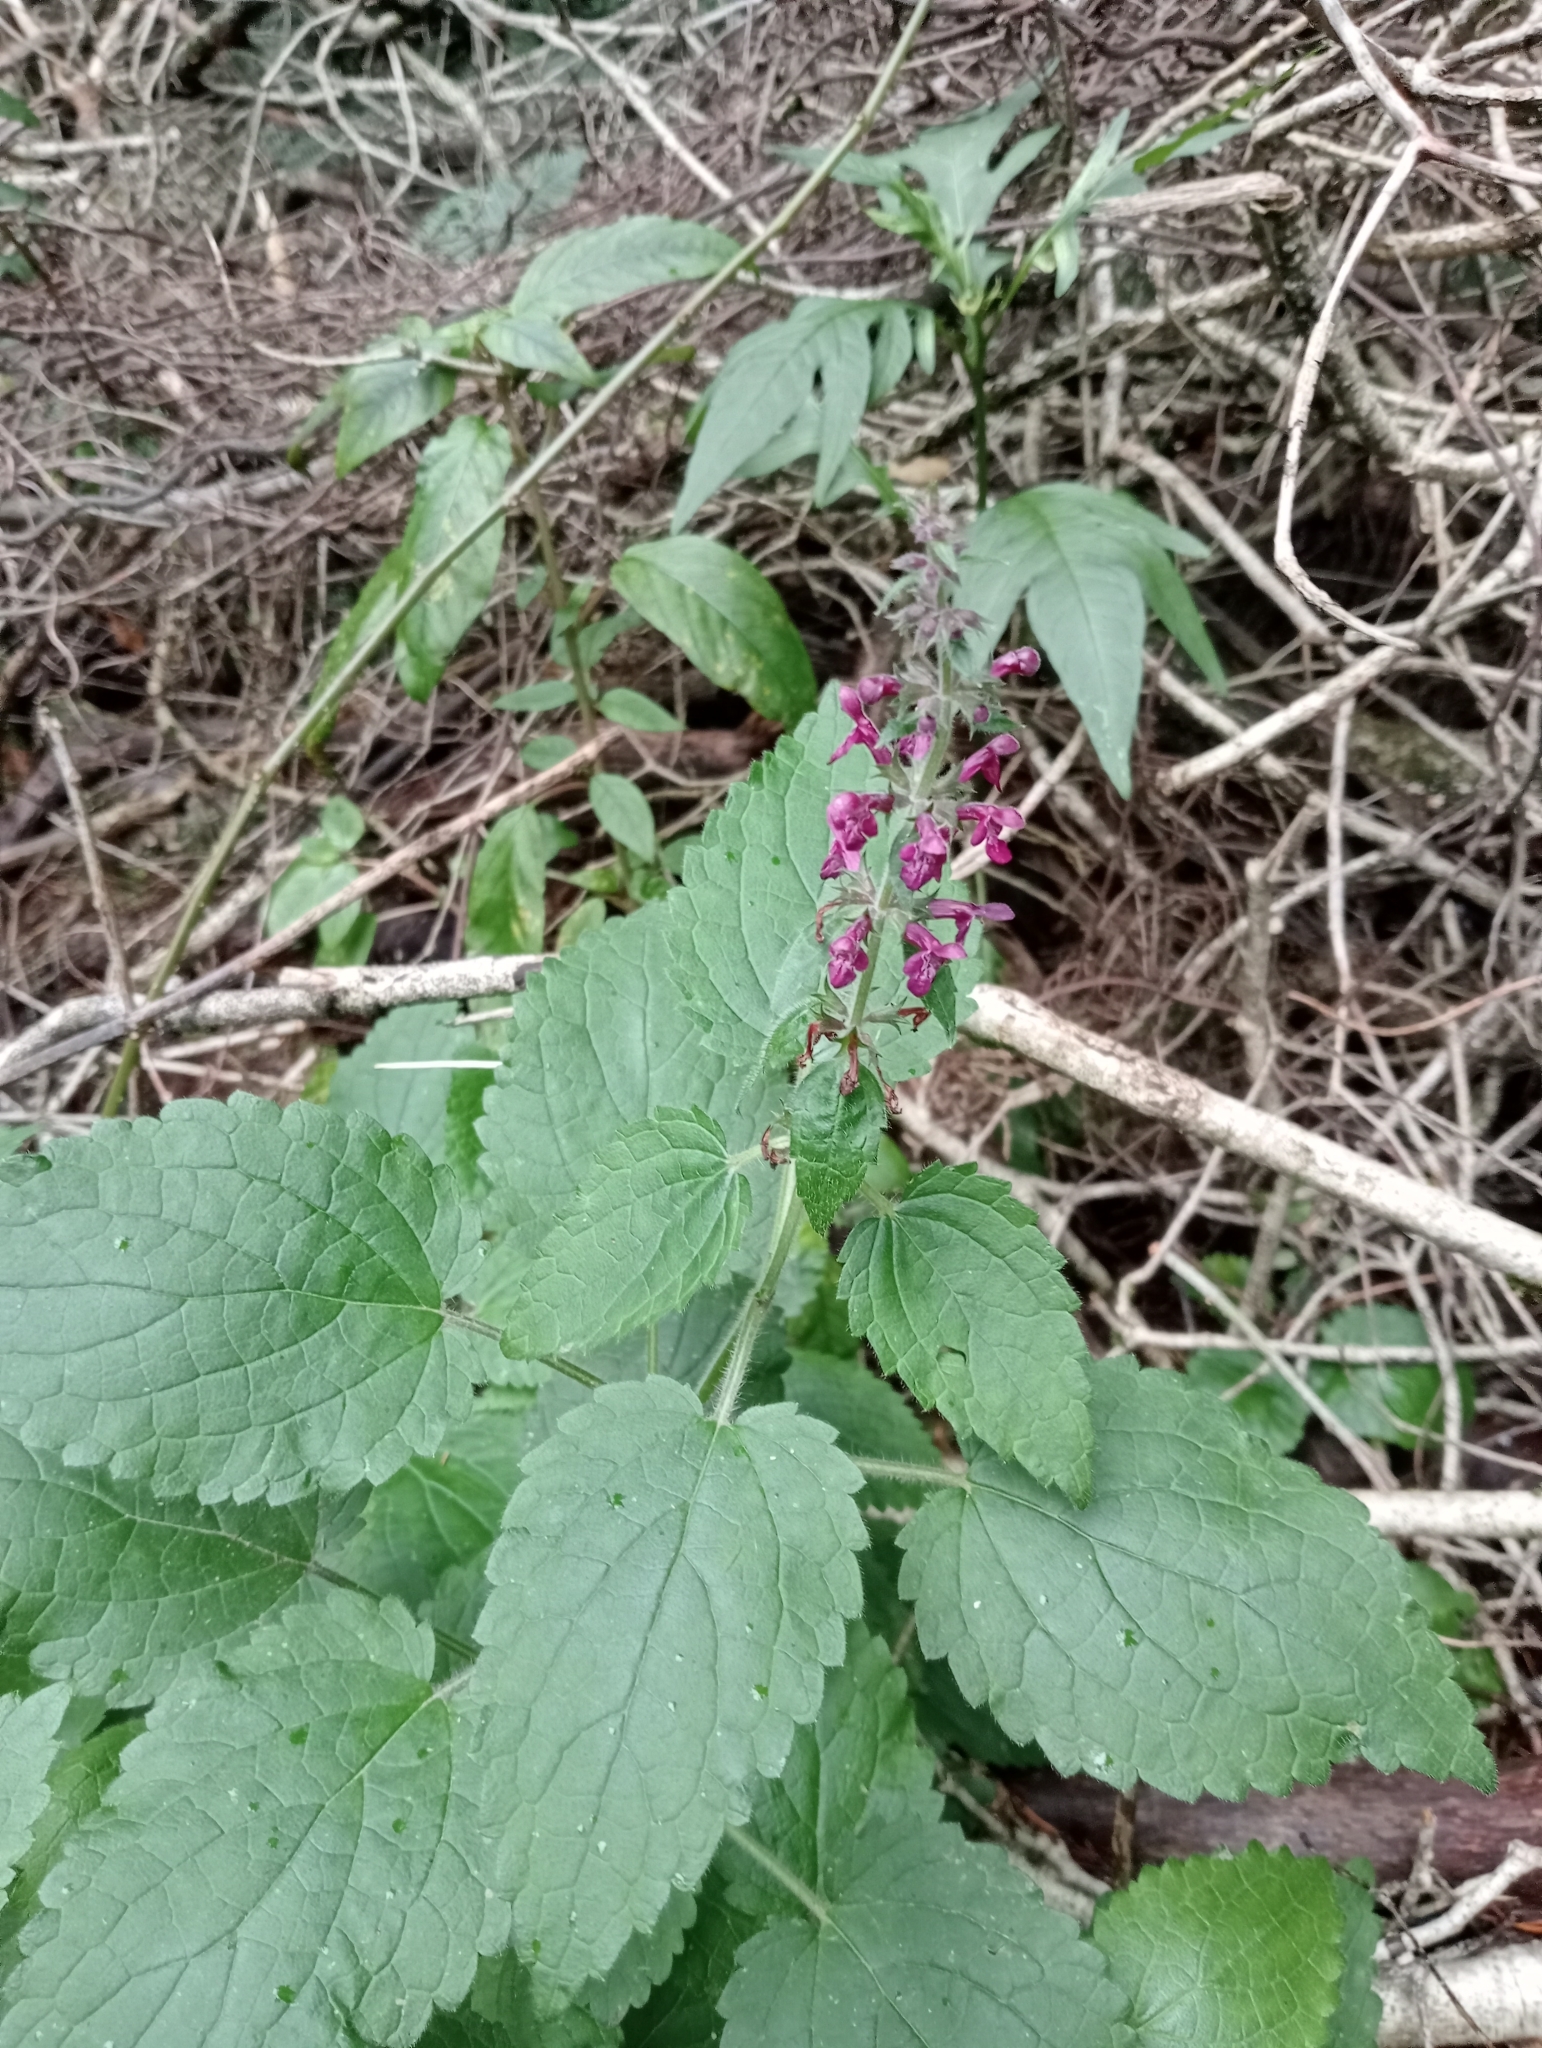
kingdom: Plantae
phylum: Tracheophyta
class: Magnoliopsida
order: Lamiales
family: Lamiaceae
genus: Stachys
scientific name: Stachys sylvatica
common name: Hedge woundwort
